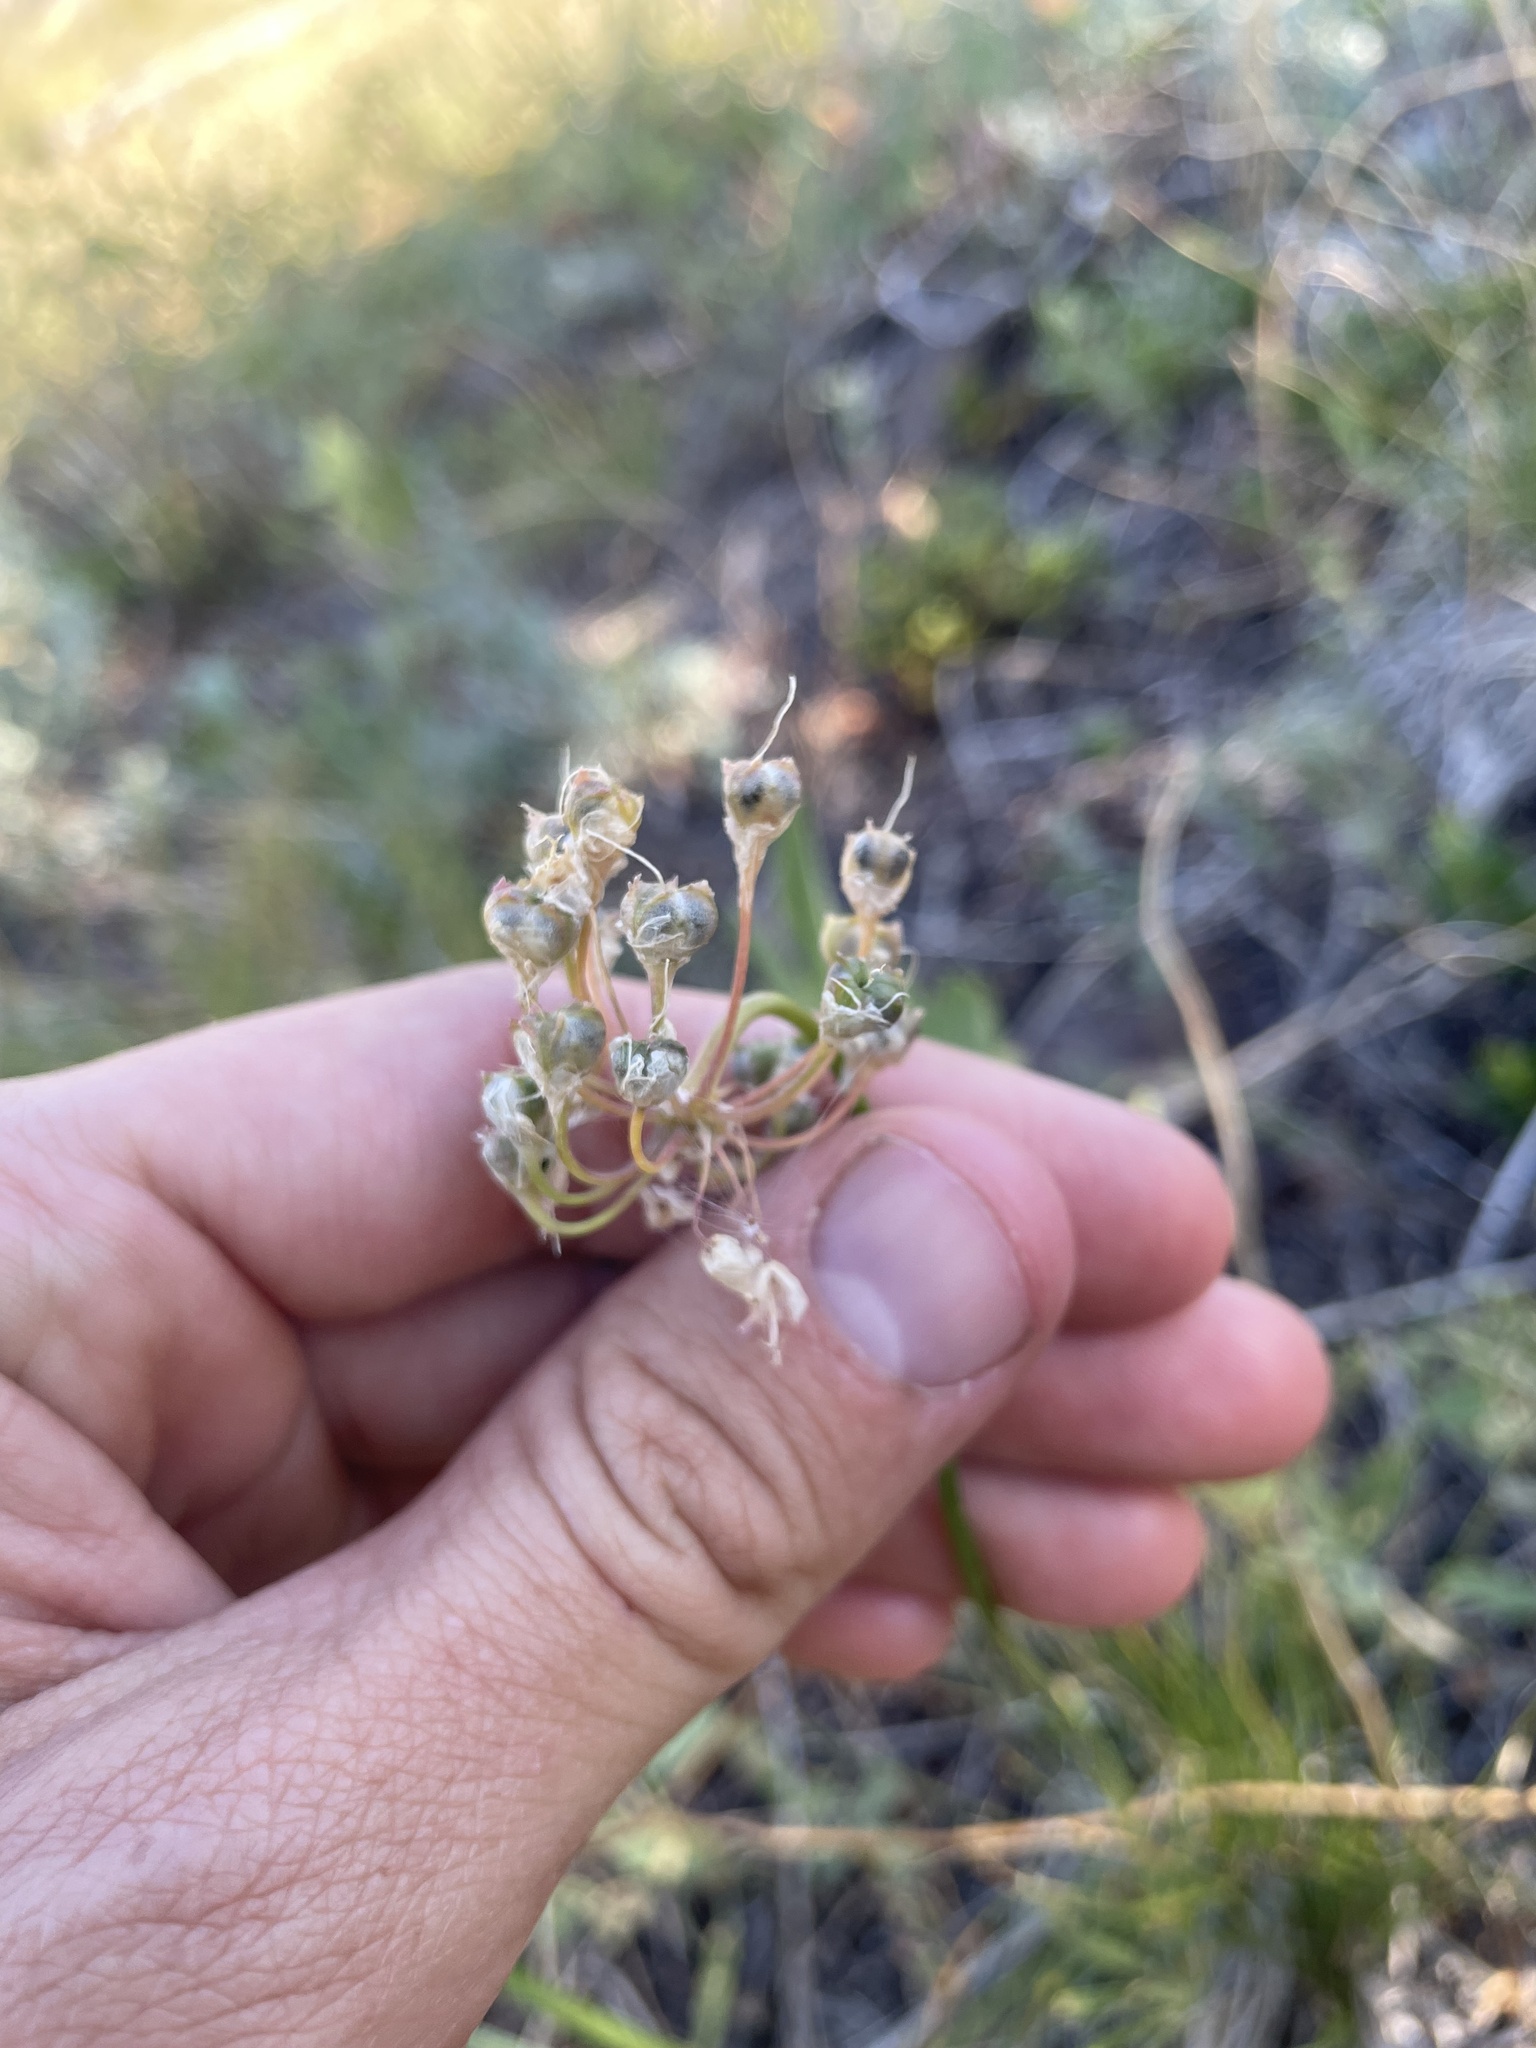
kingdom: Plantae
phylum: Tracheophyta
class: Liliopsida
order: Asparagales
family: Amaryllidaceae
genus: Allium
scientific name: Allium cernuum
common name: Nodding onion
